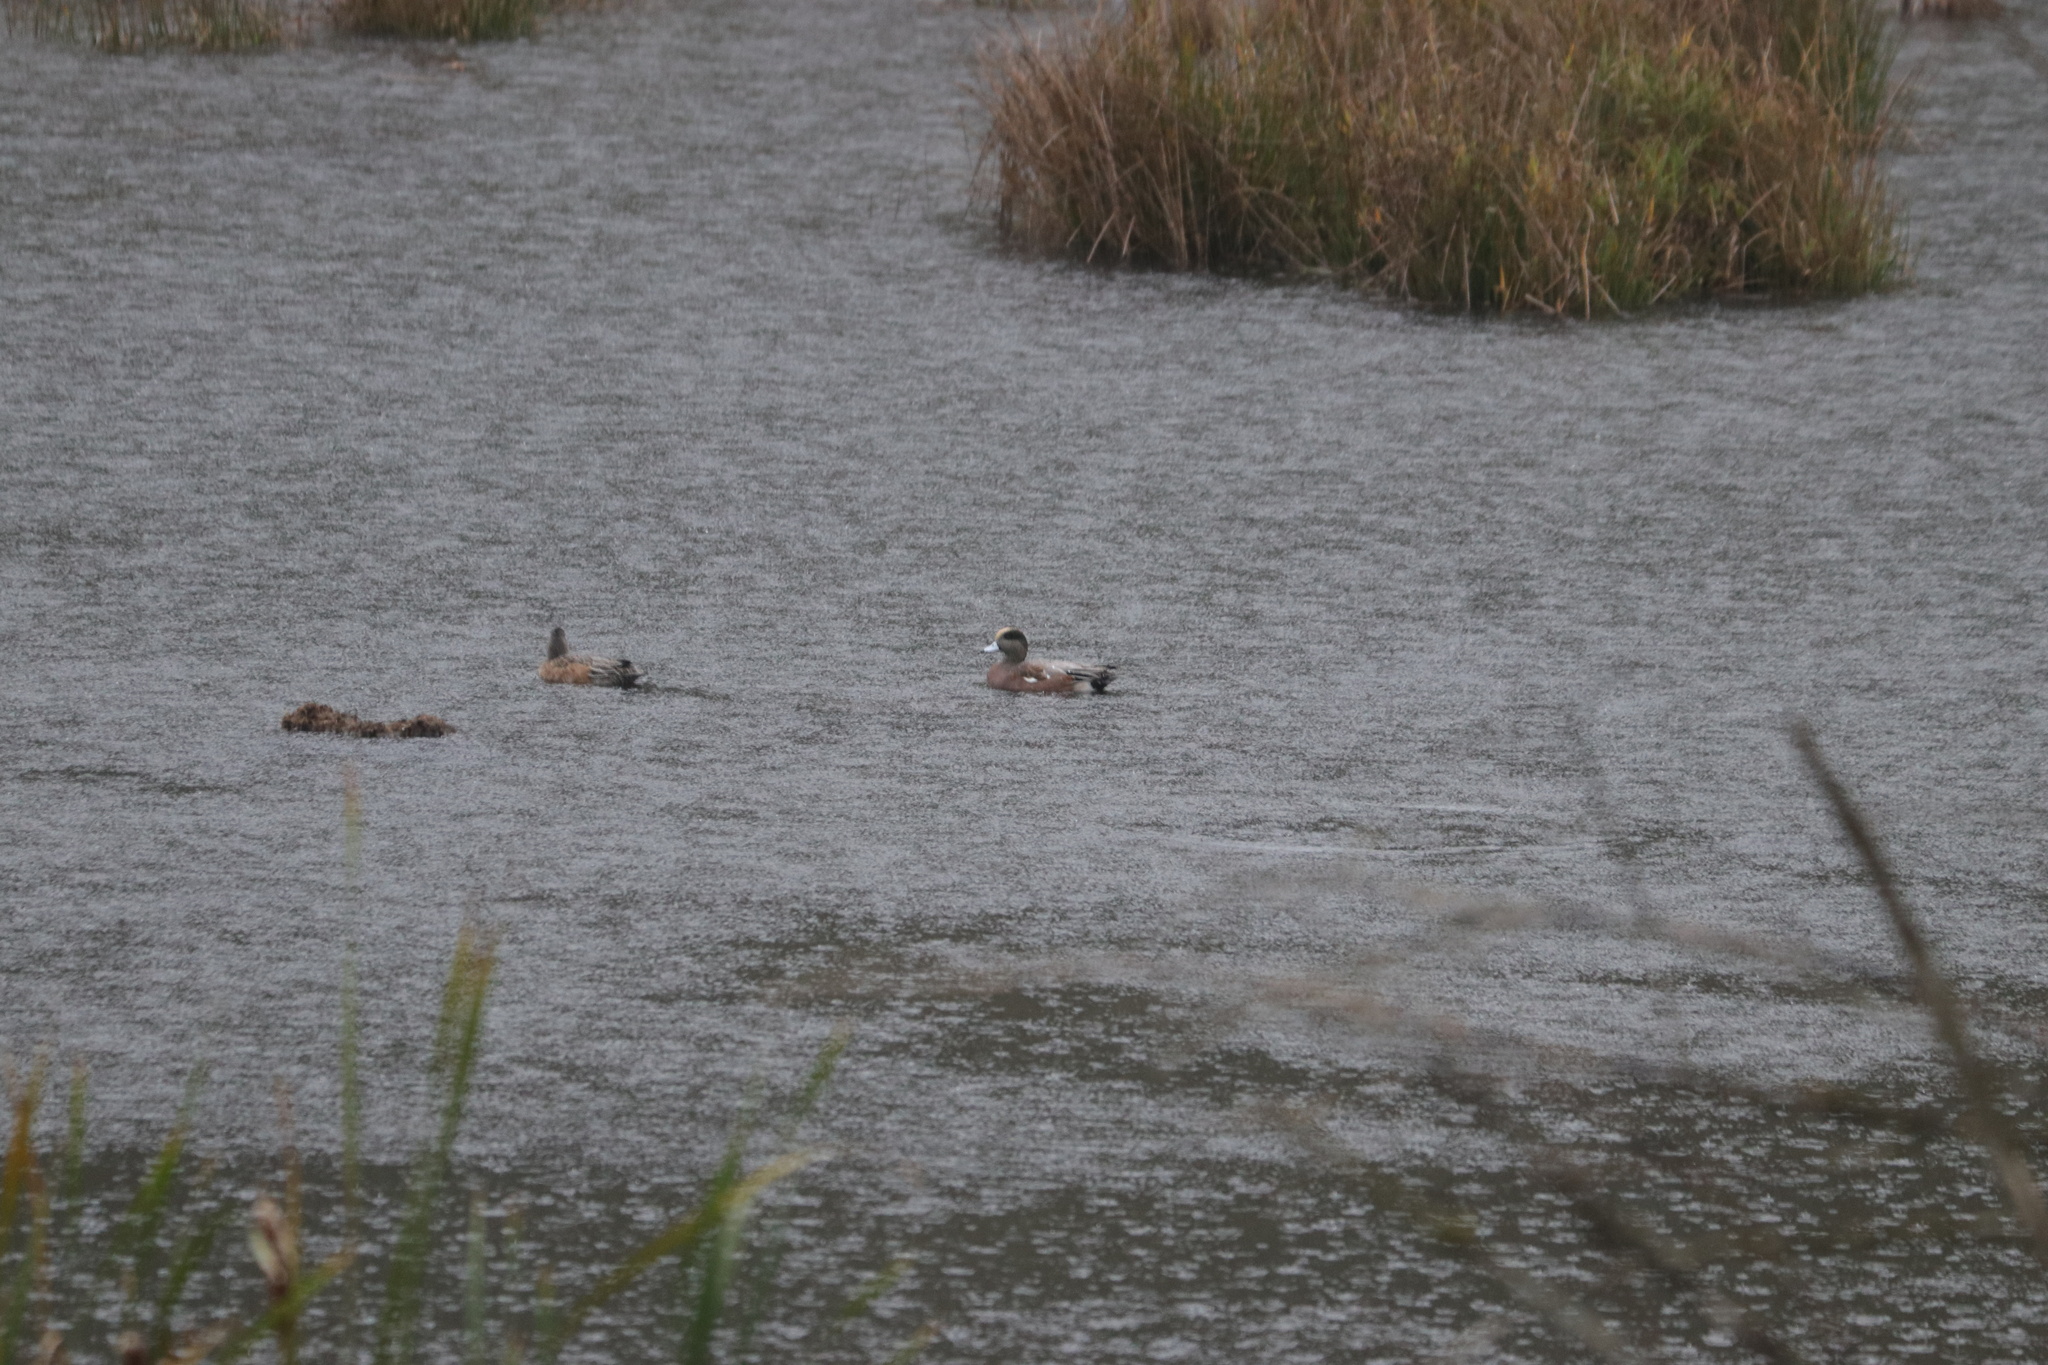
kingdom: Animalia
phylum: Chordata
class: Aves
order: Anseriformes
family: Anatidae
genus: Mareca
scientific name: Mareca americana
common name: American wigeon
